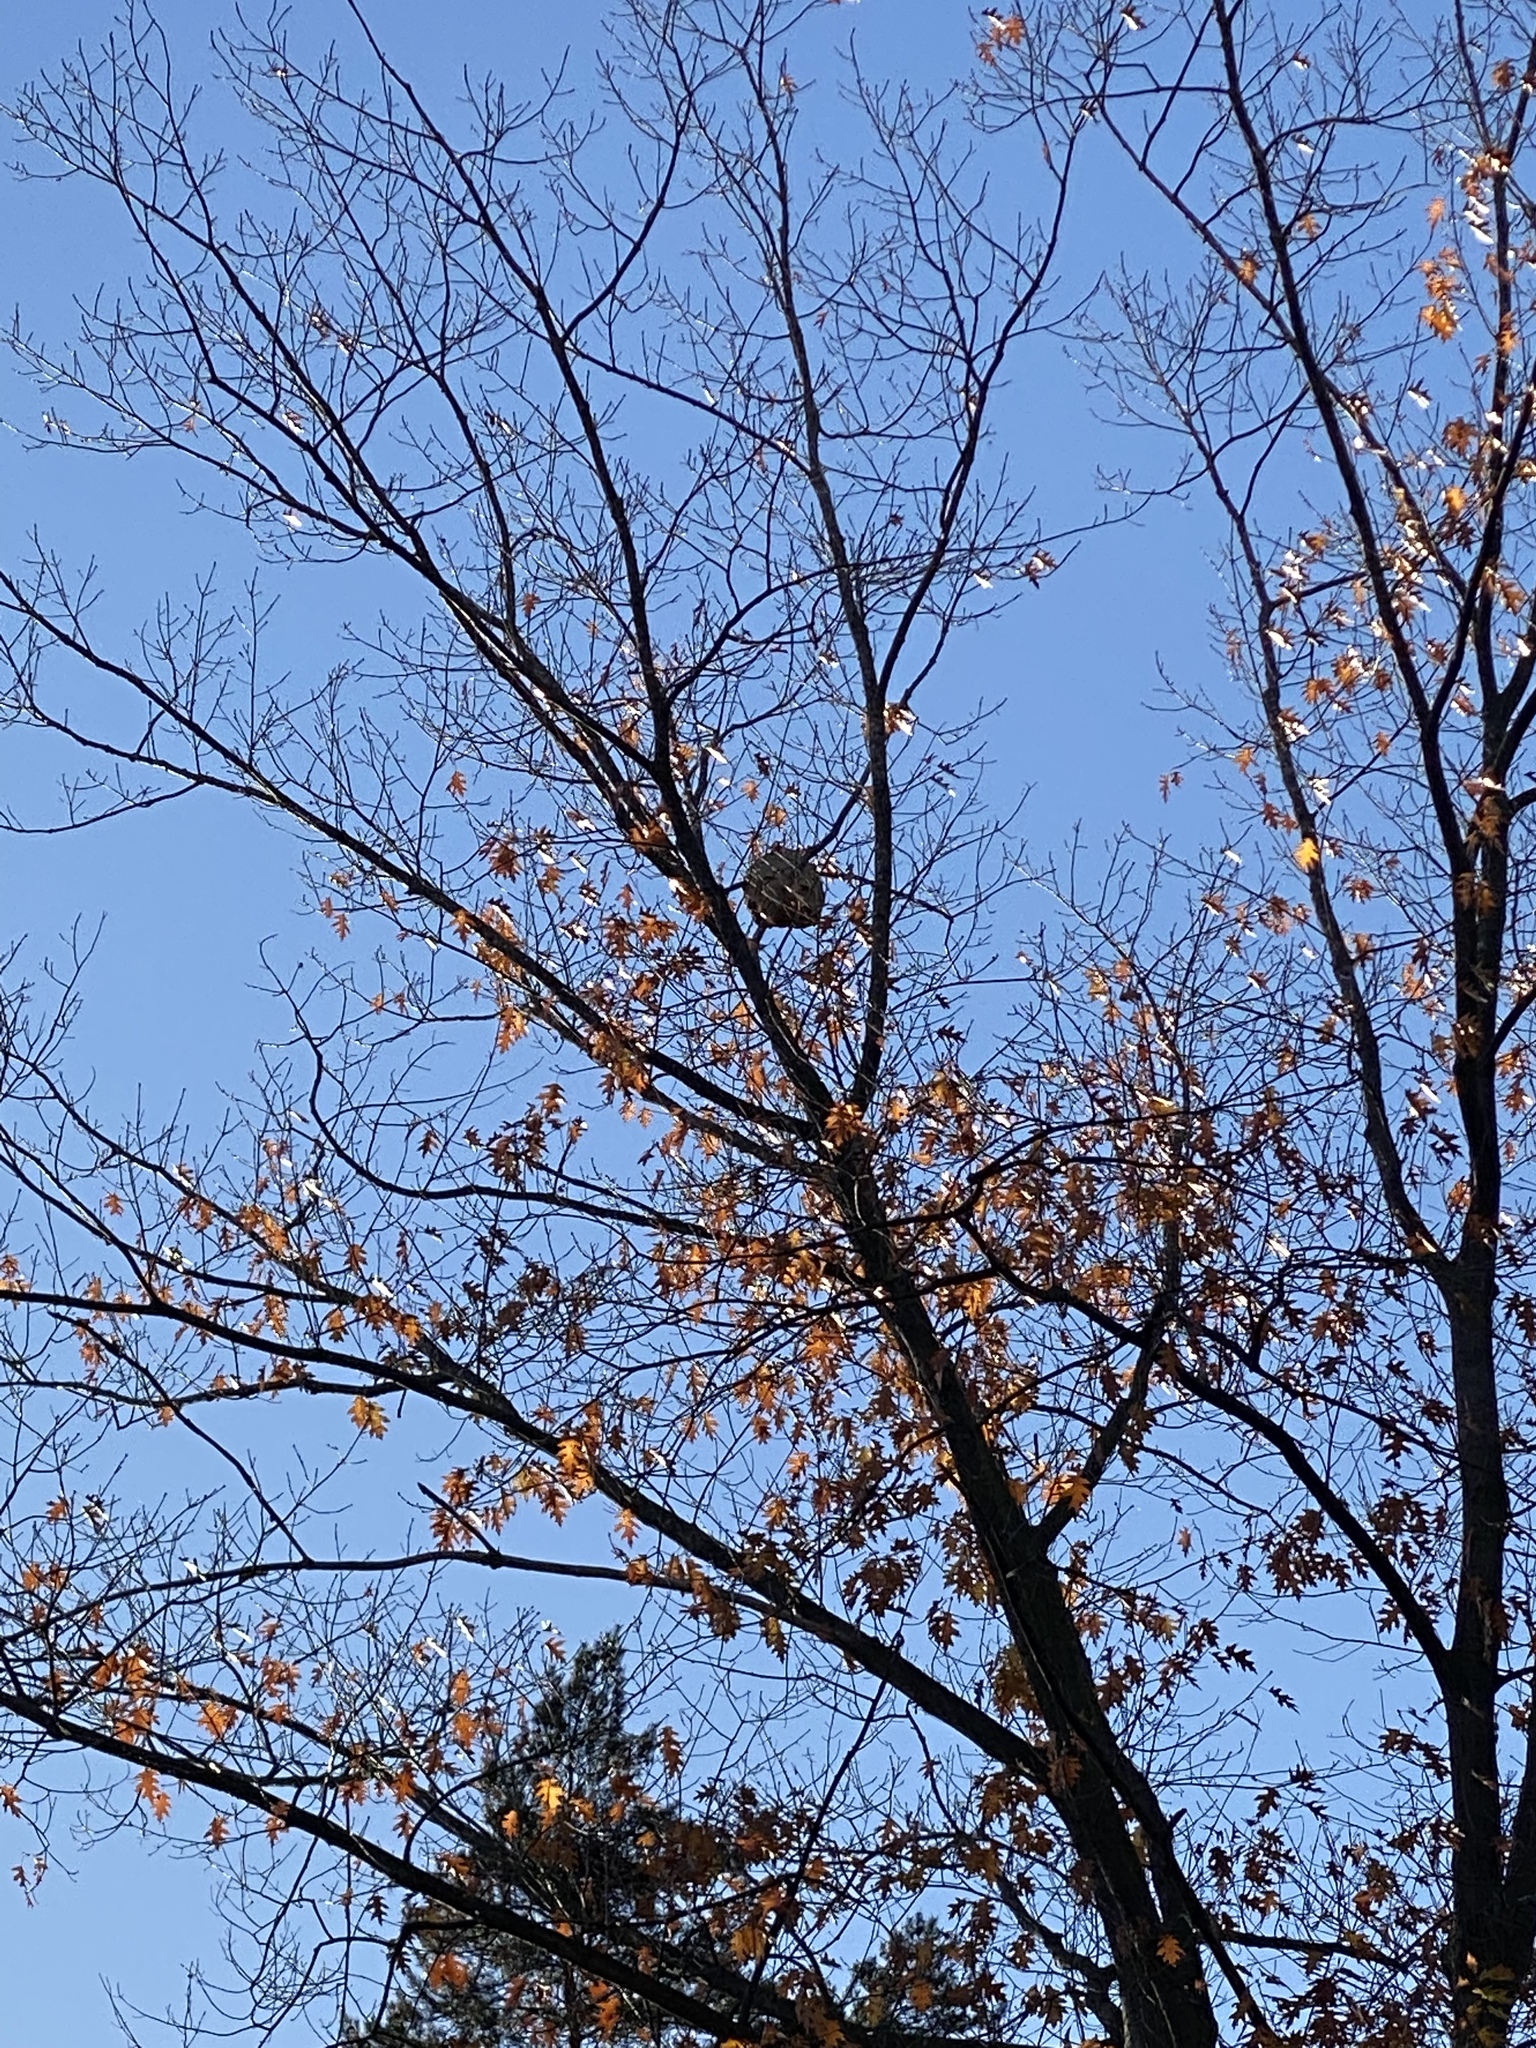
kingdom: Animalia
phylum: Arthropoda
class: Insecta
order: Hymenoptera
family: Vespidae
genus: Vespa
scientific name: Vespa velutina
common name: Asian hornet
